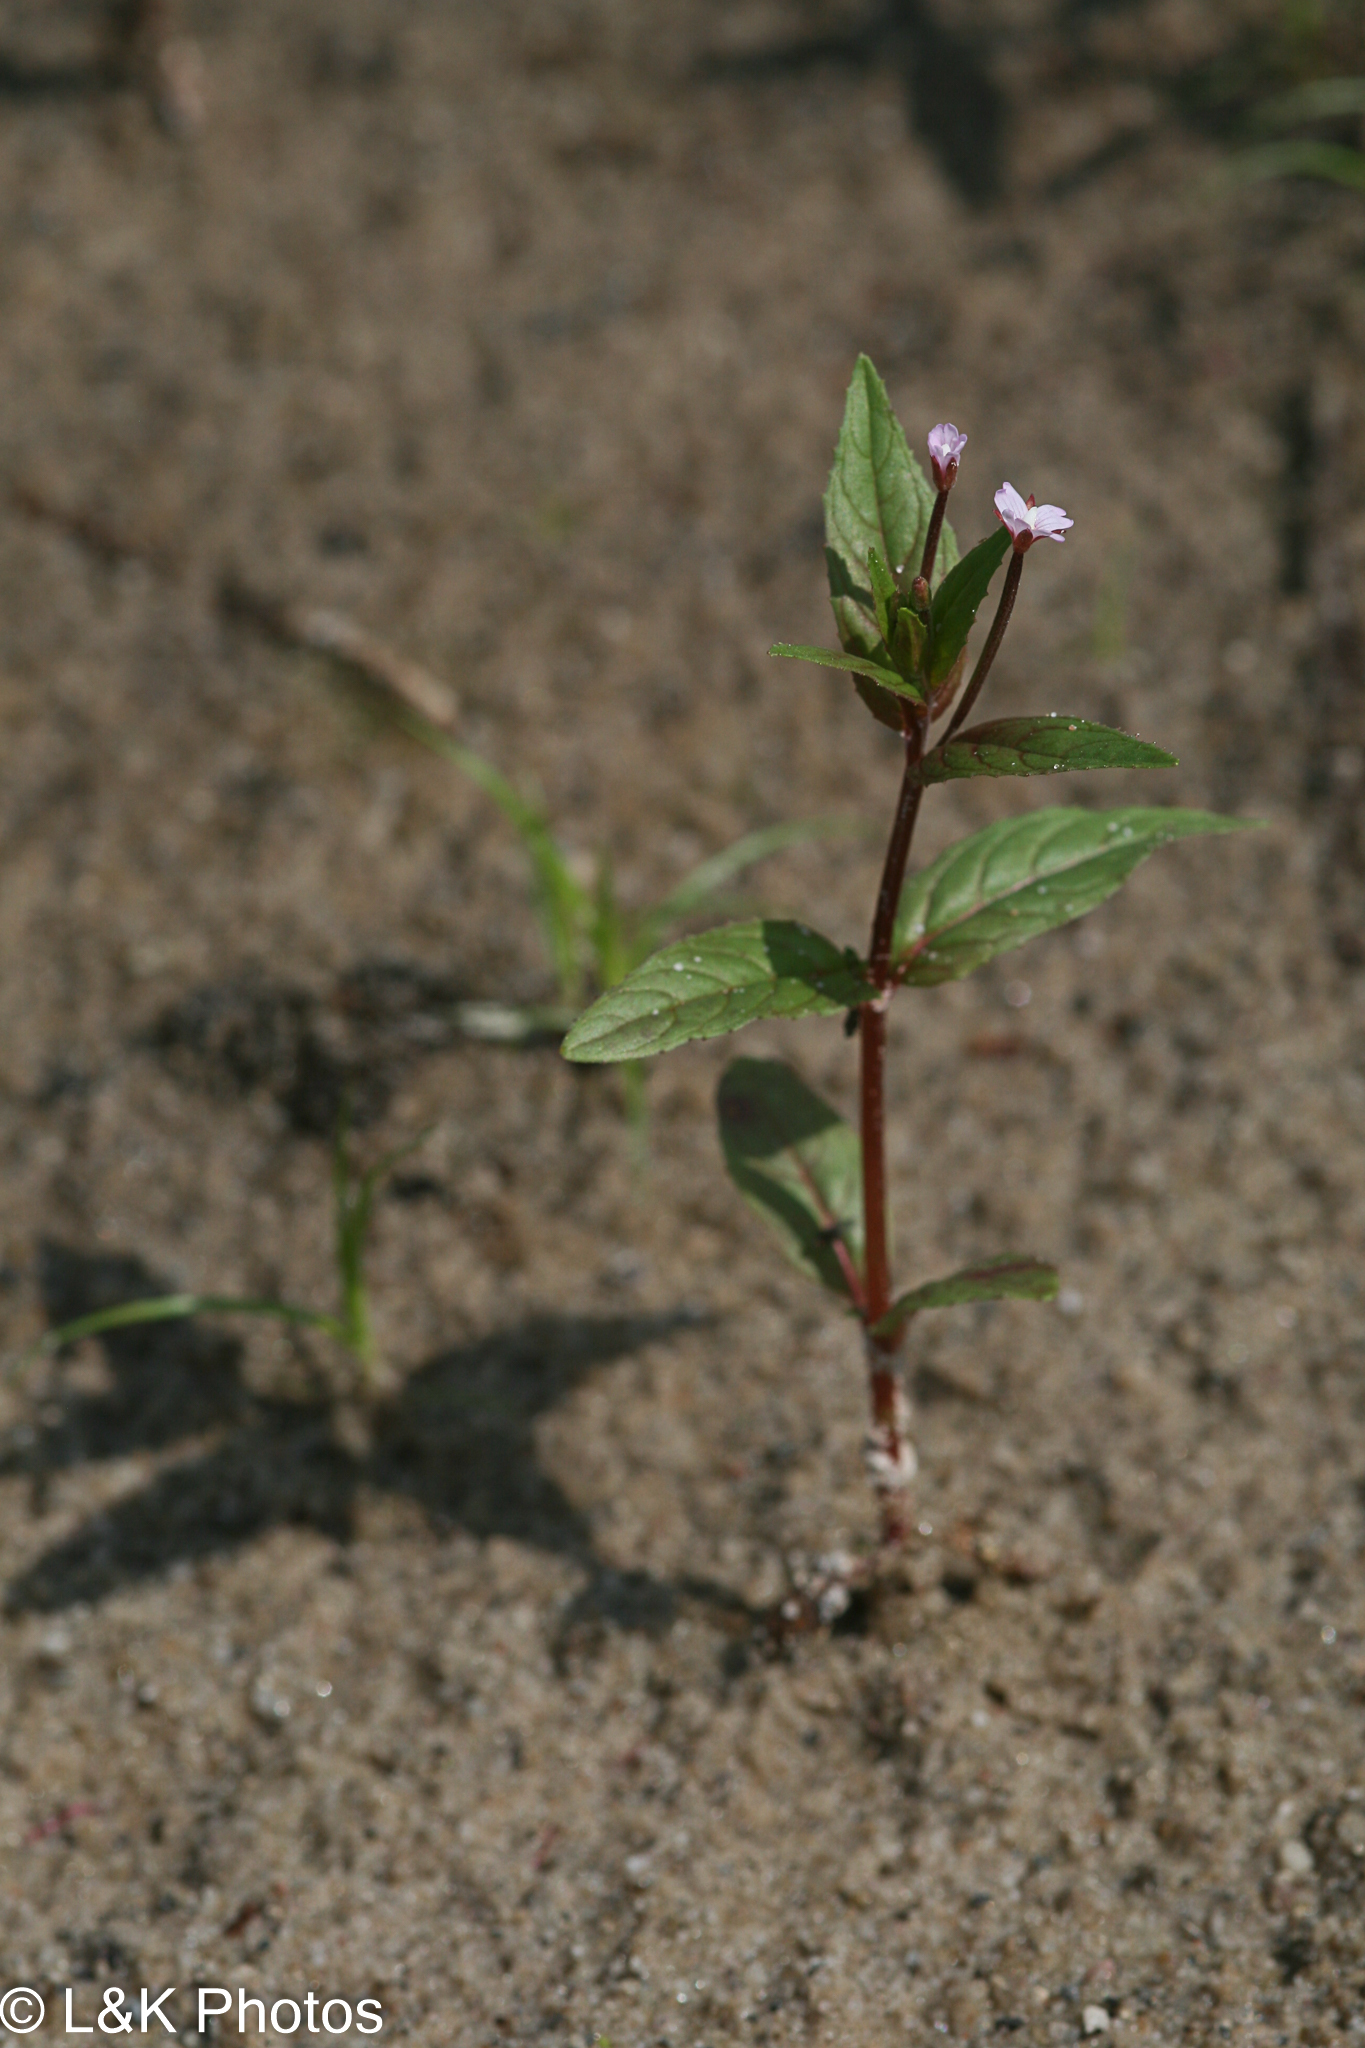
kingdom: Plantae
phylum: Tracheophyta
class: Magnoliopsida
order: Myrtales
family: Onagraceae
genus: Epilobium
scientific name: Epilobium ciliatum
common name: American willowherb
